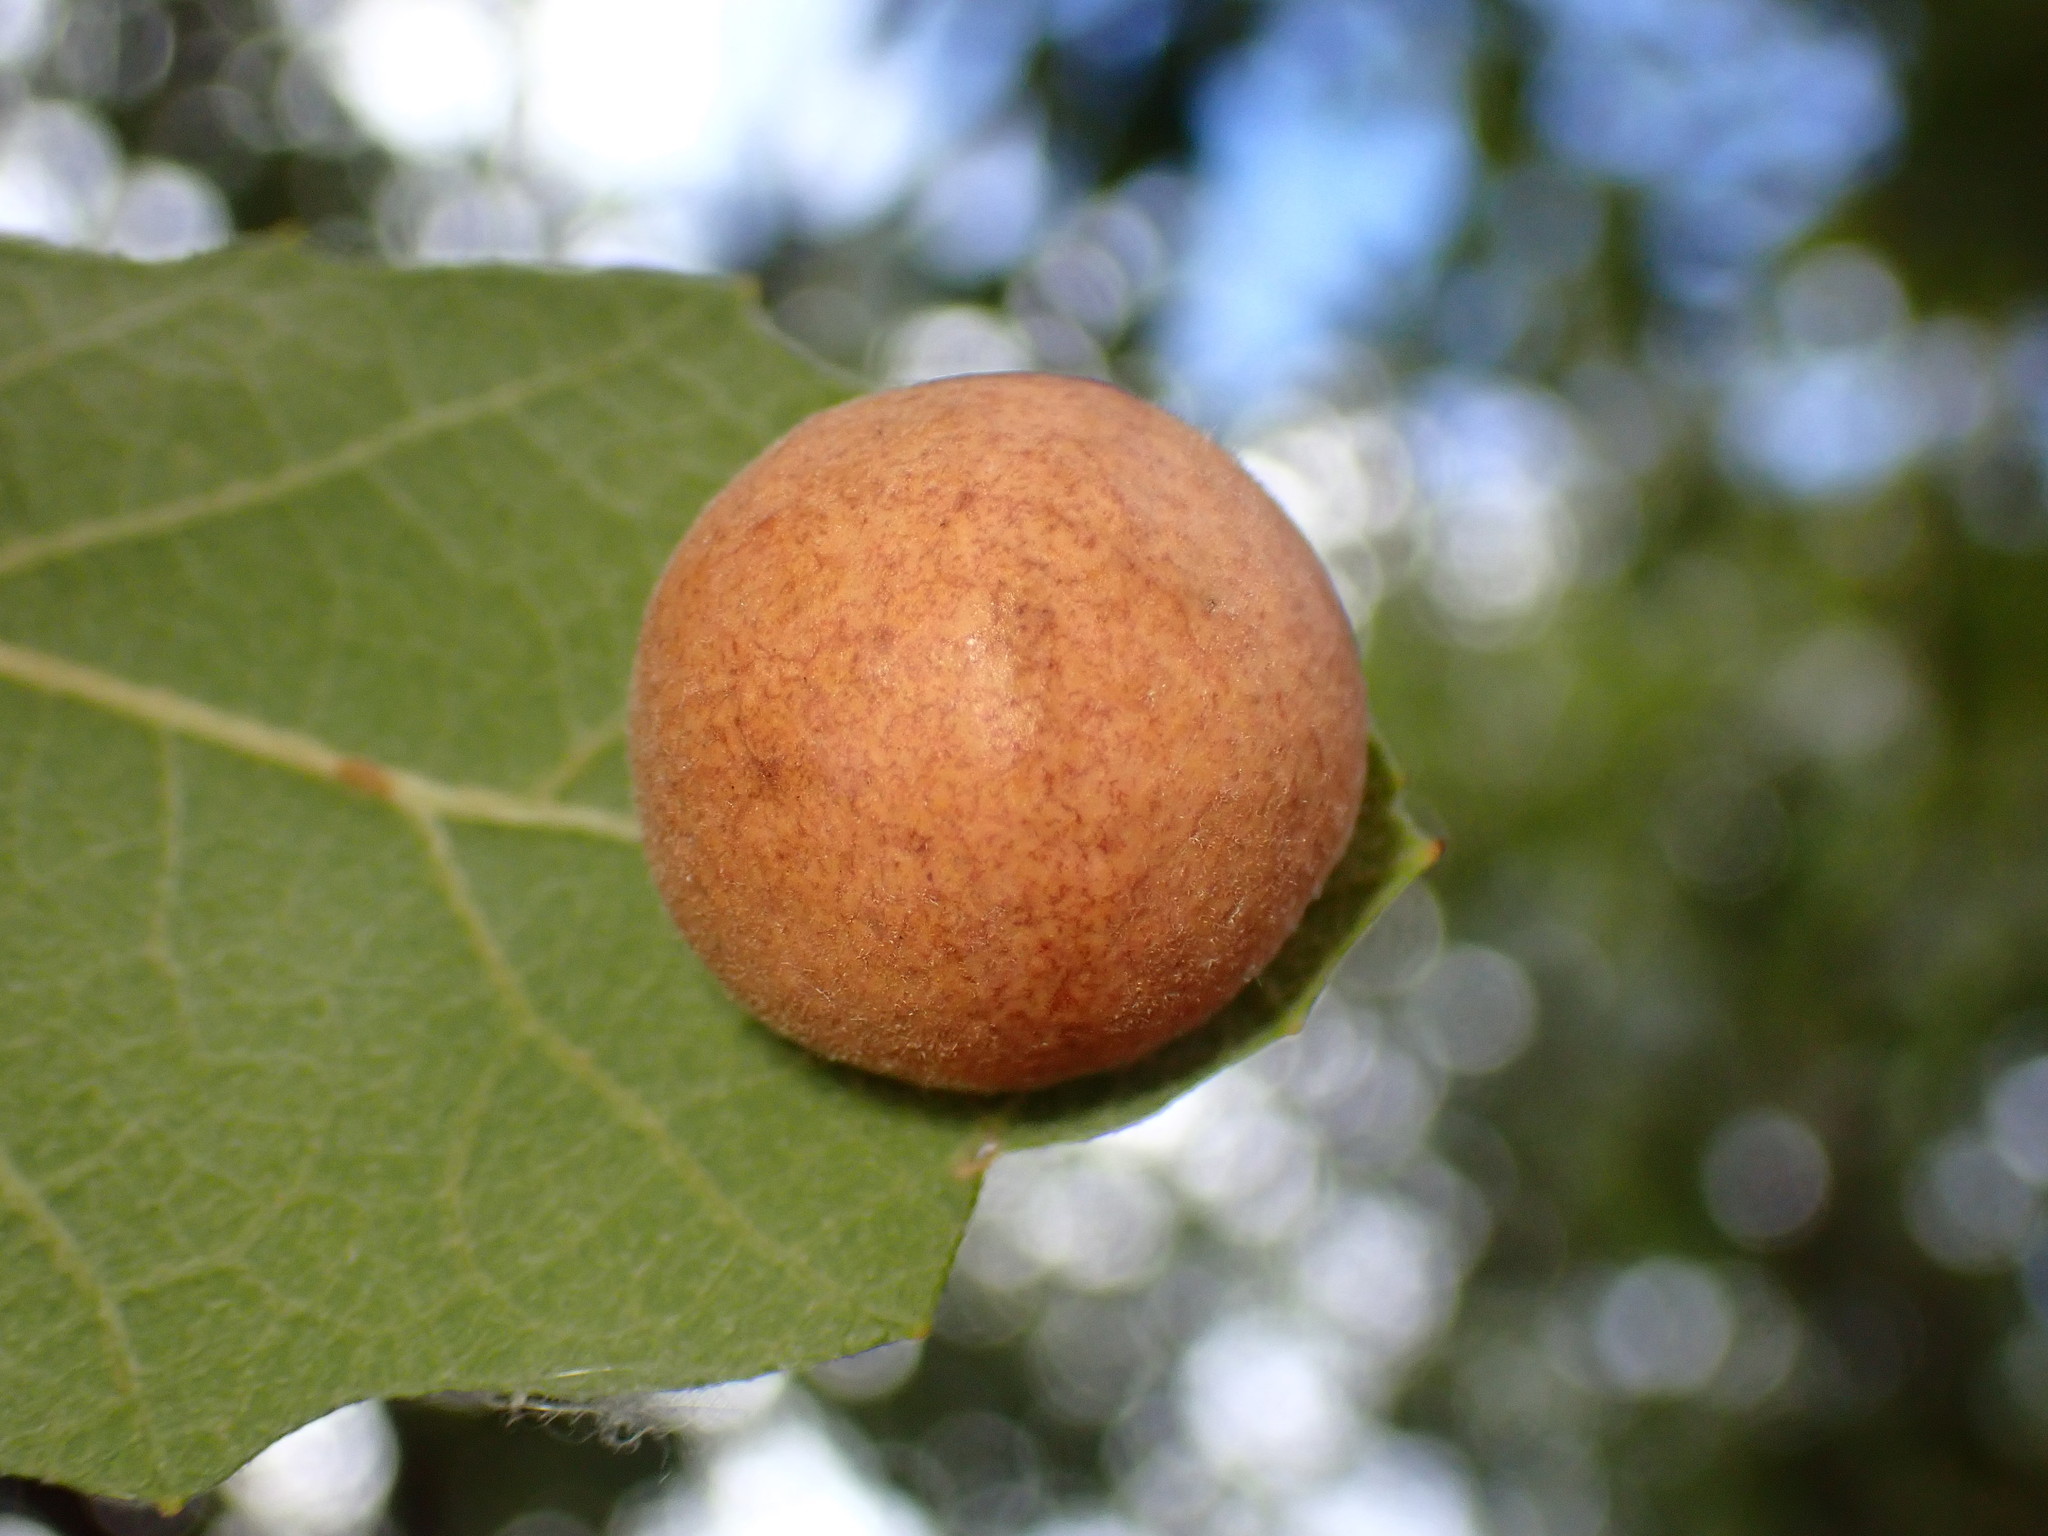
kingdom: Animalia
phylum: Arthropoda
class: Insecta
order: Hymenoptera
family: Cynipidae
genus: Atrusca
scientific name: Atrusca
